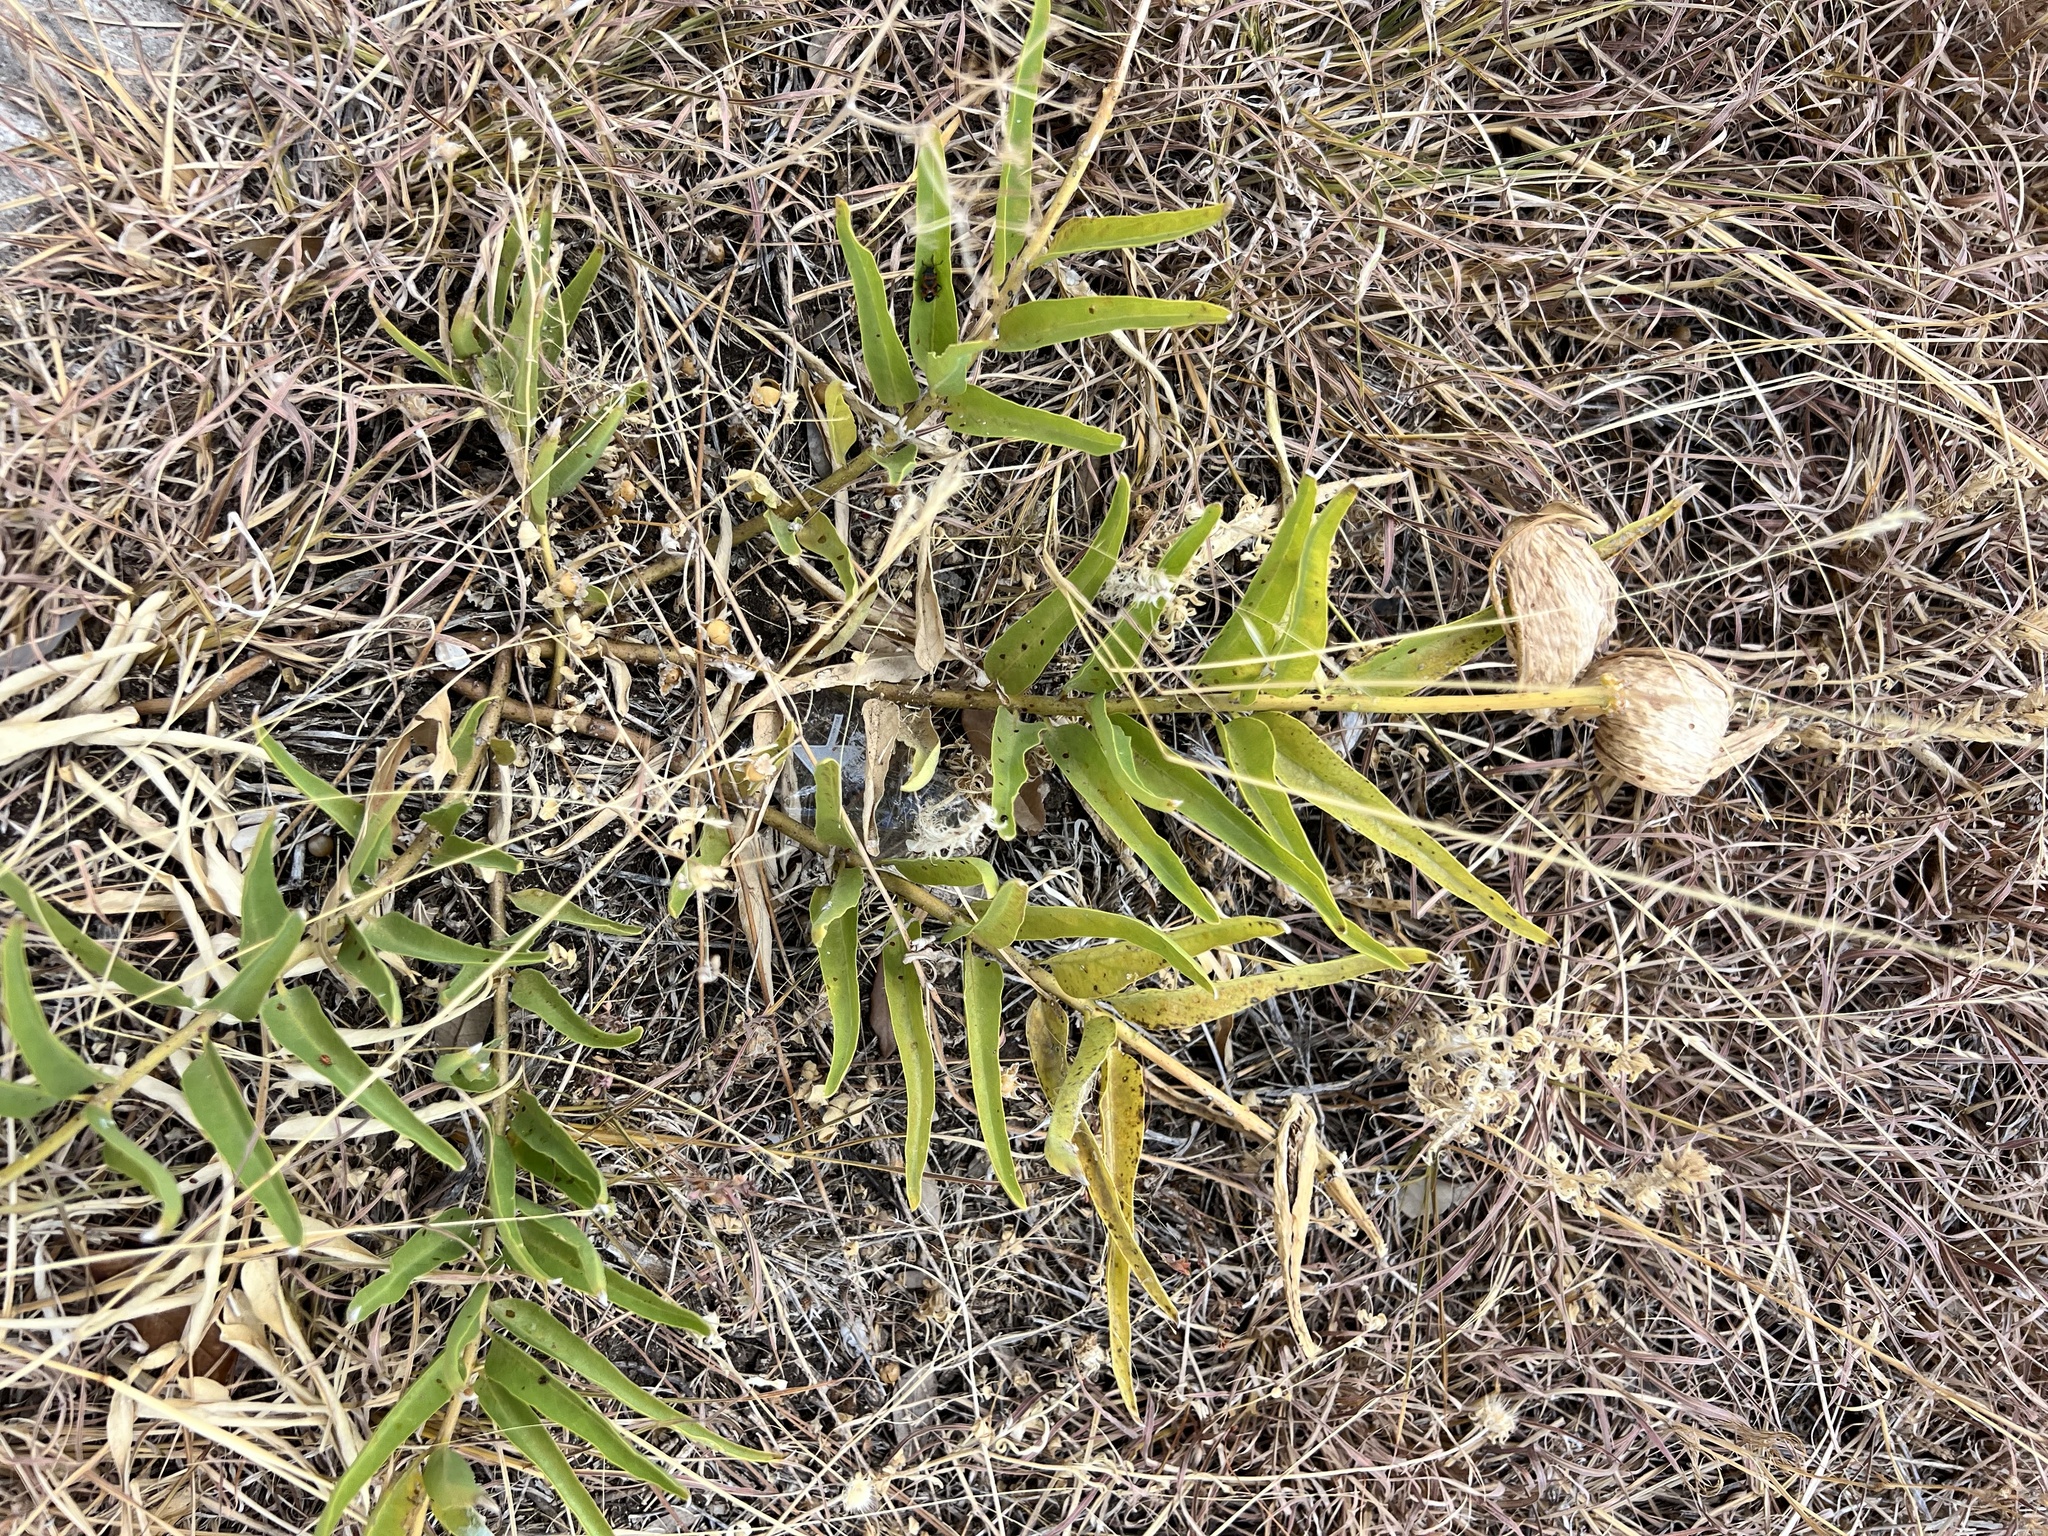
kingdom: Plantae
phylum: Tracheophyta
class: Magnoliopsida
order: Gentianales
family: Apocynaceae
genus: Asclepias
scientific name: Asclepias asperula
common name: Antelope horns
